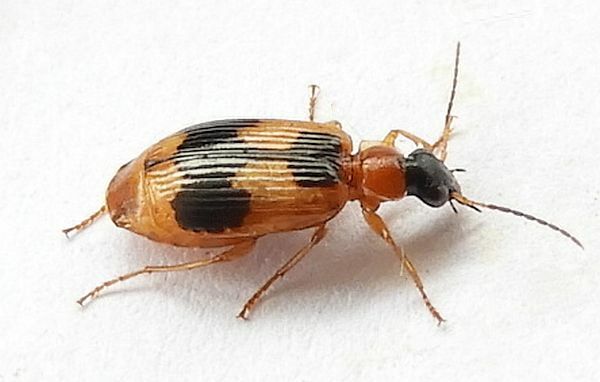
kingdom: Animalia
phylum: Arthropoda
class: Insecta
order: Coleoptera
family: Carabidae
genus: Lebia
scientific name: Lebia analis
